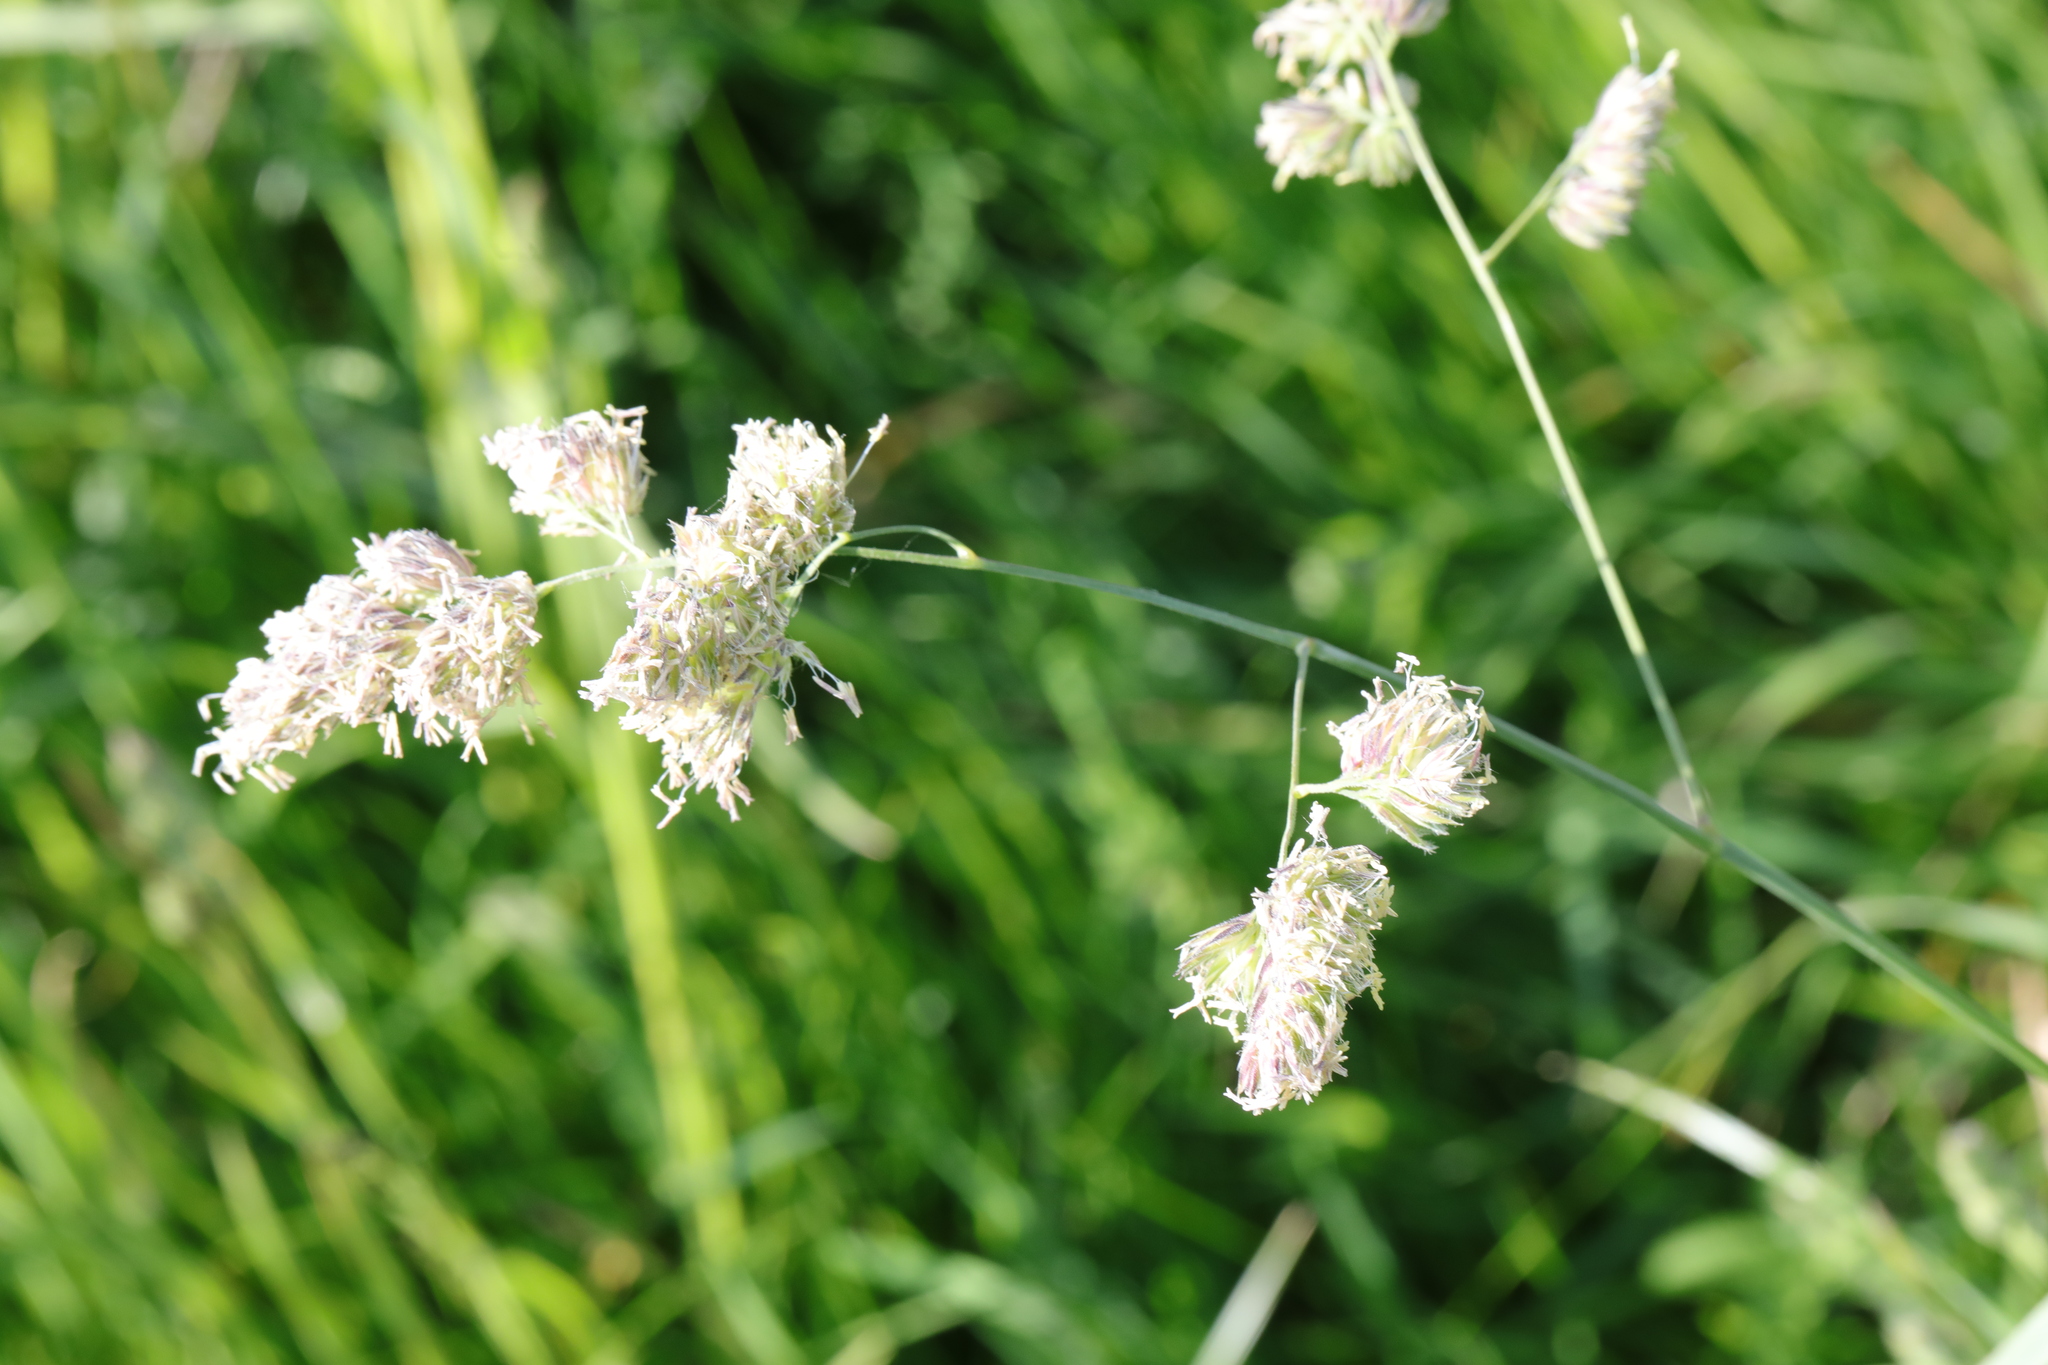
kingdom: Plantae
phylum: Tracheophyta
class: Liliopsida
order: Poales
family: Poaceae
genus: Dactylis
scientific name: Dactylis glomerata
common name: Orchardgrass
